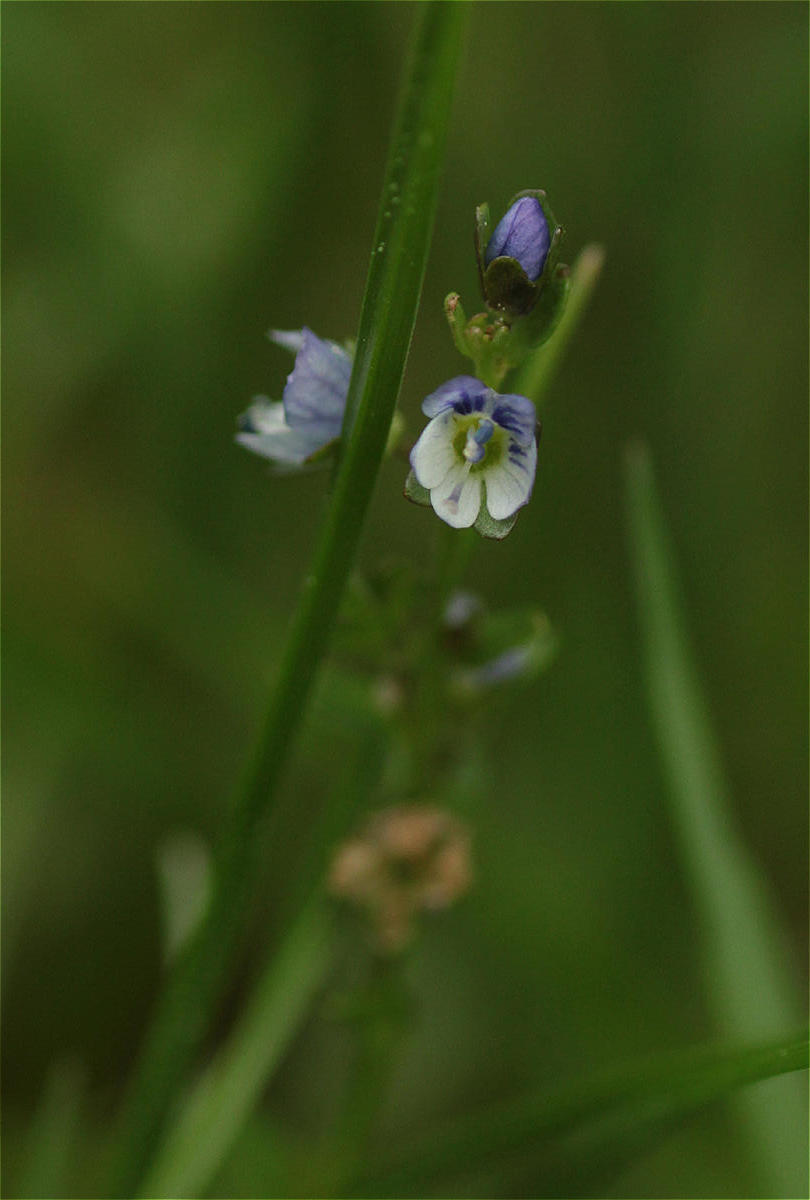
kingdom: Plantae
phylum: Tracheophyta
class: Magnoliopsida
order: Lamiales
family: Plantaginaceae
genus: Veronica
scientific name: Veronica serpyllifolia
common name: Thyme-leaved speedwell
